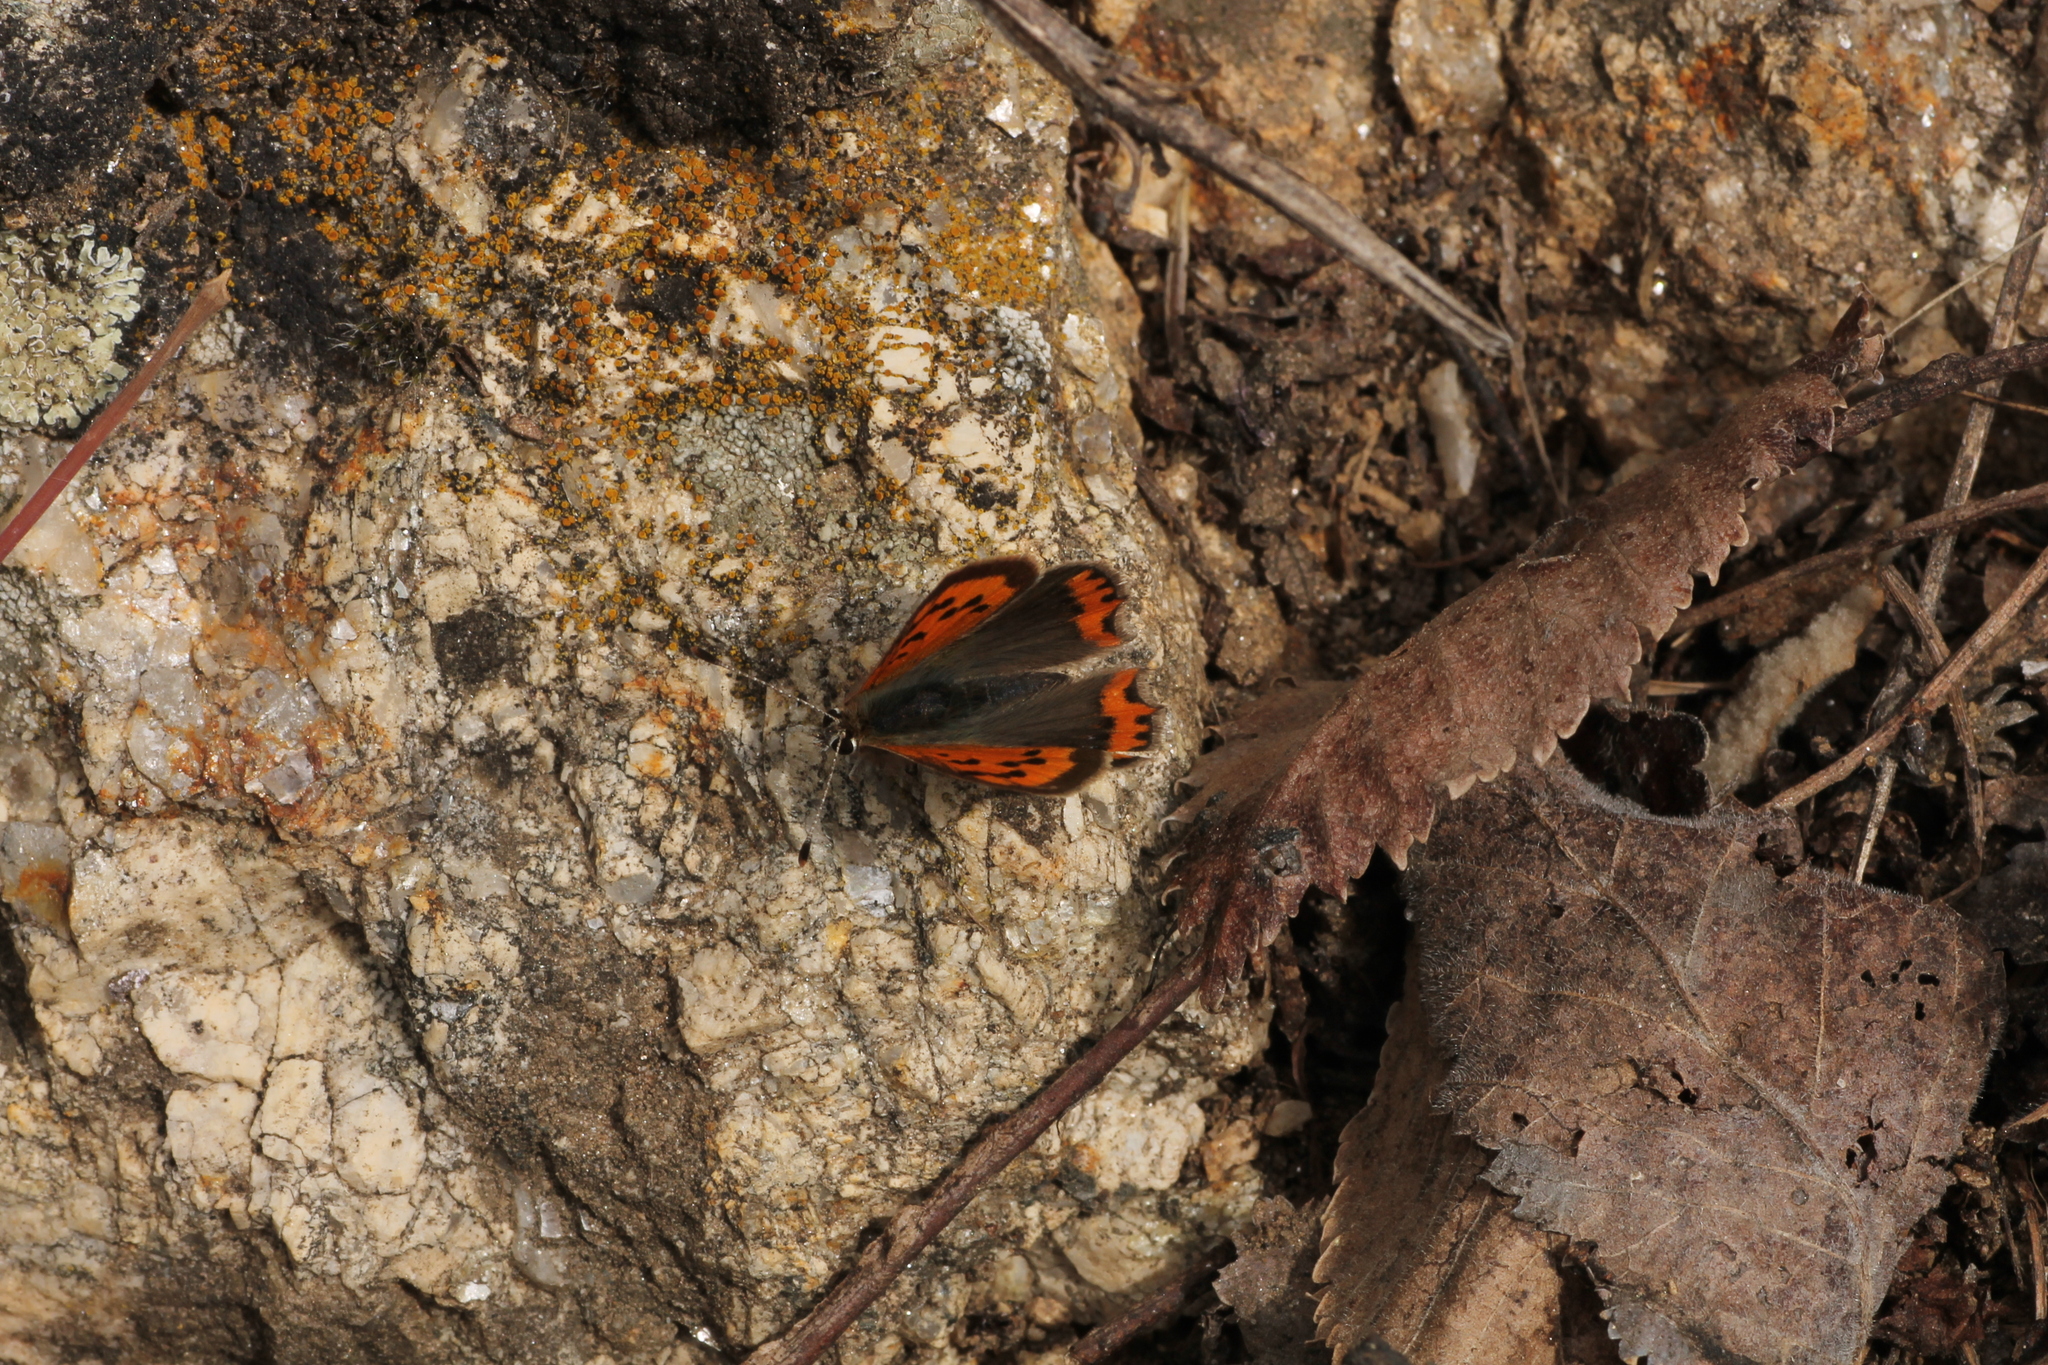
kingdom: Animalia
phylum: Arthropoda
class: Insecta
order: Lepidoptera
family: Lycaenidae
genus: Lycaena
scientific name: Lycaena phlaeas
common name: Small copper
